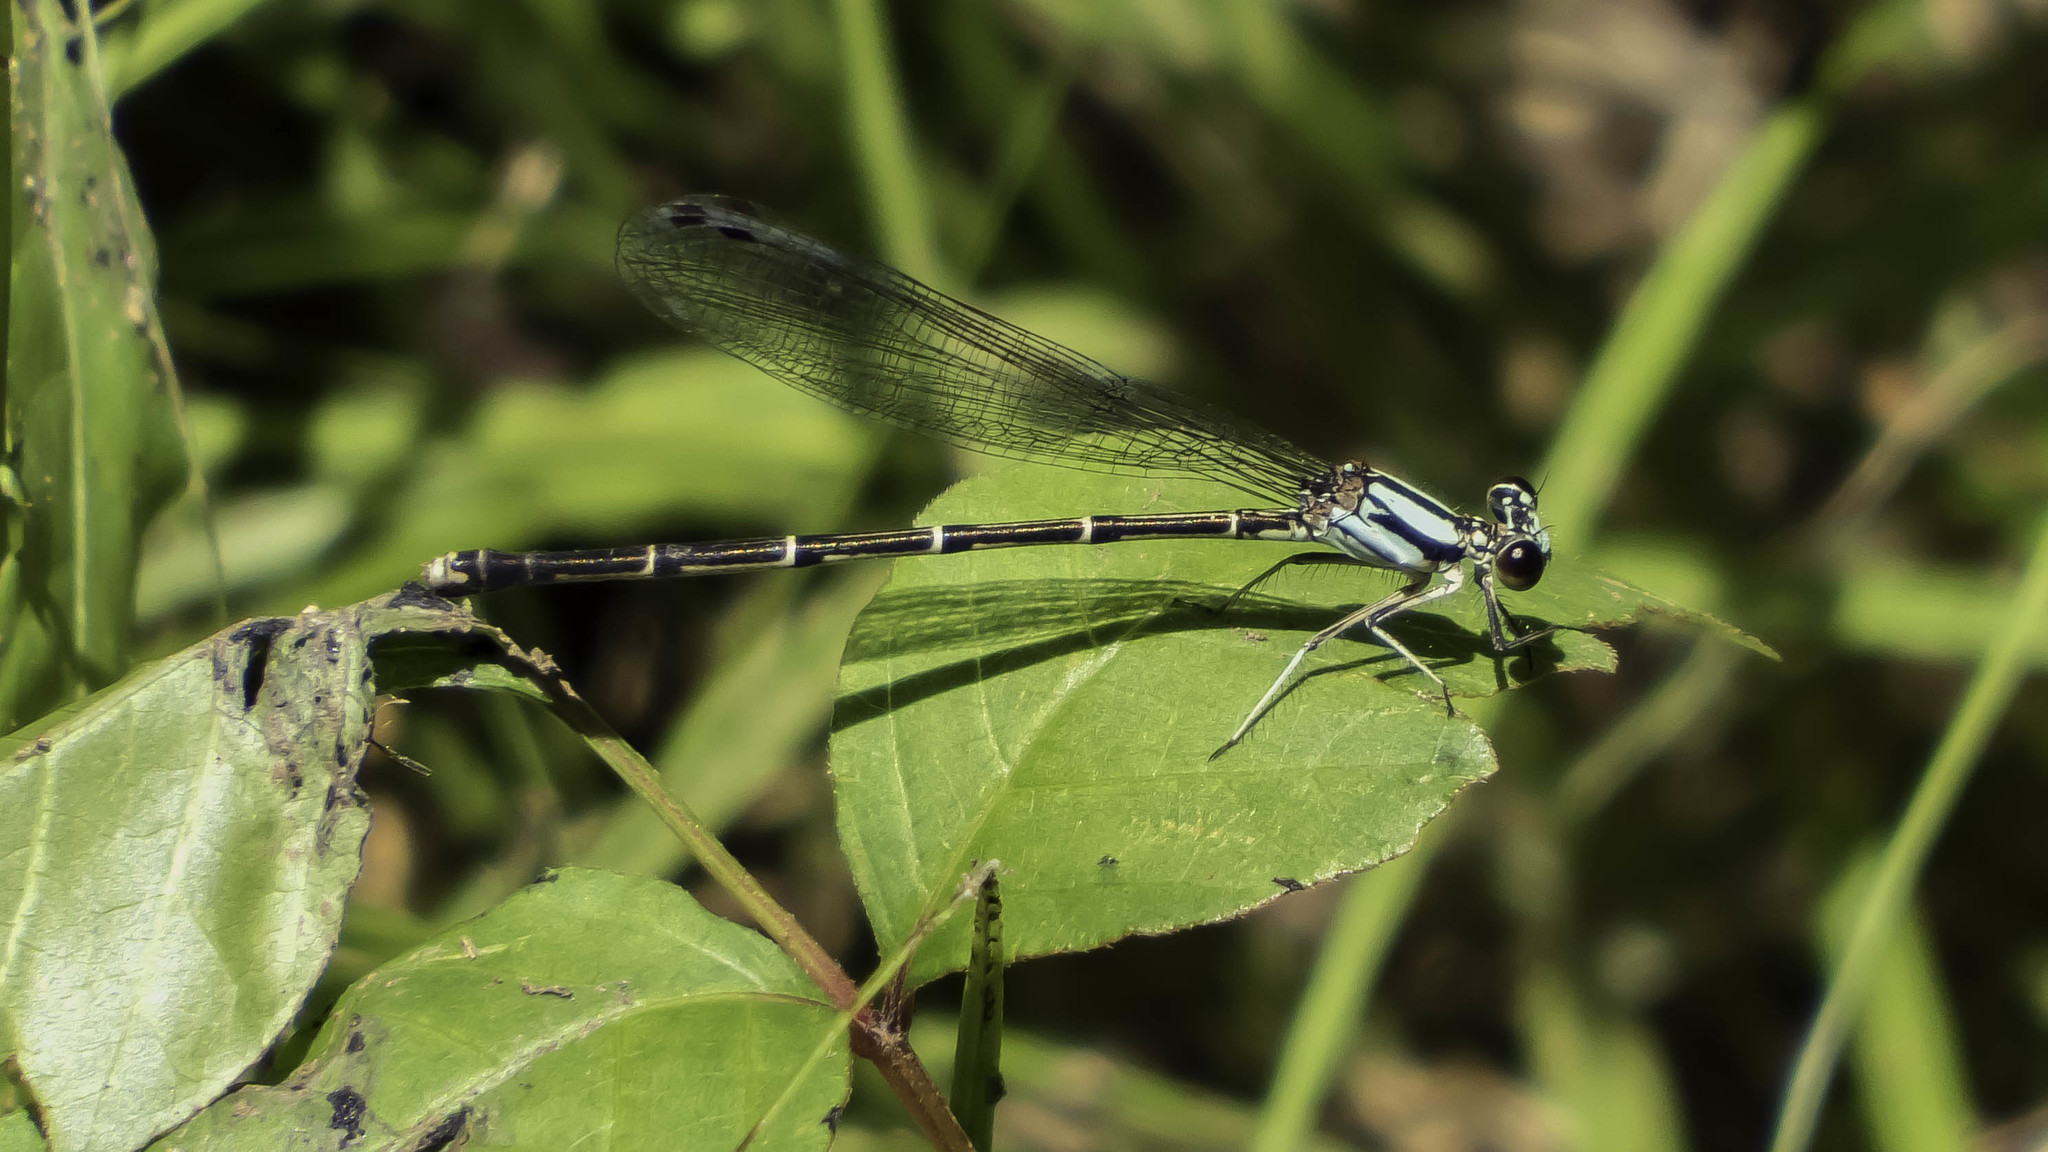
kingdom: Animalia
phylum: Arthropoda
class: Insecta
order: Odonata
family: Coenagrionidae
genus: Argia
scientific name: Argia tibialis
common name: Blue-tipped dancer
